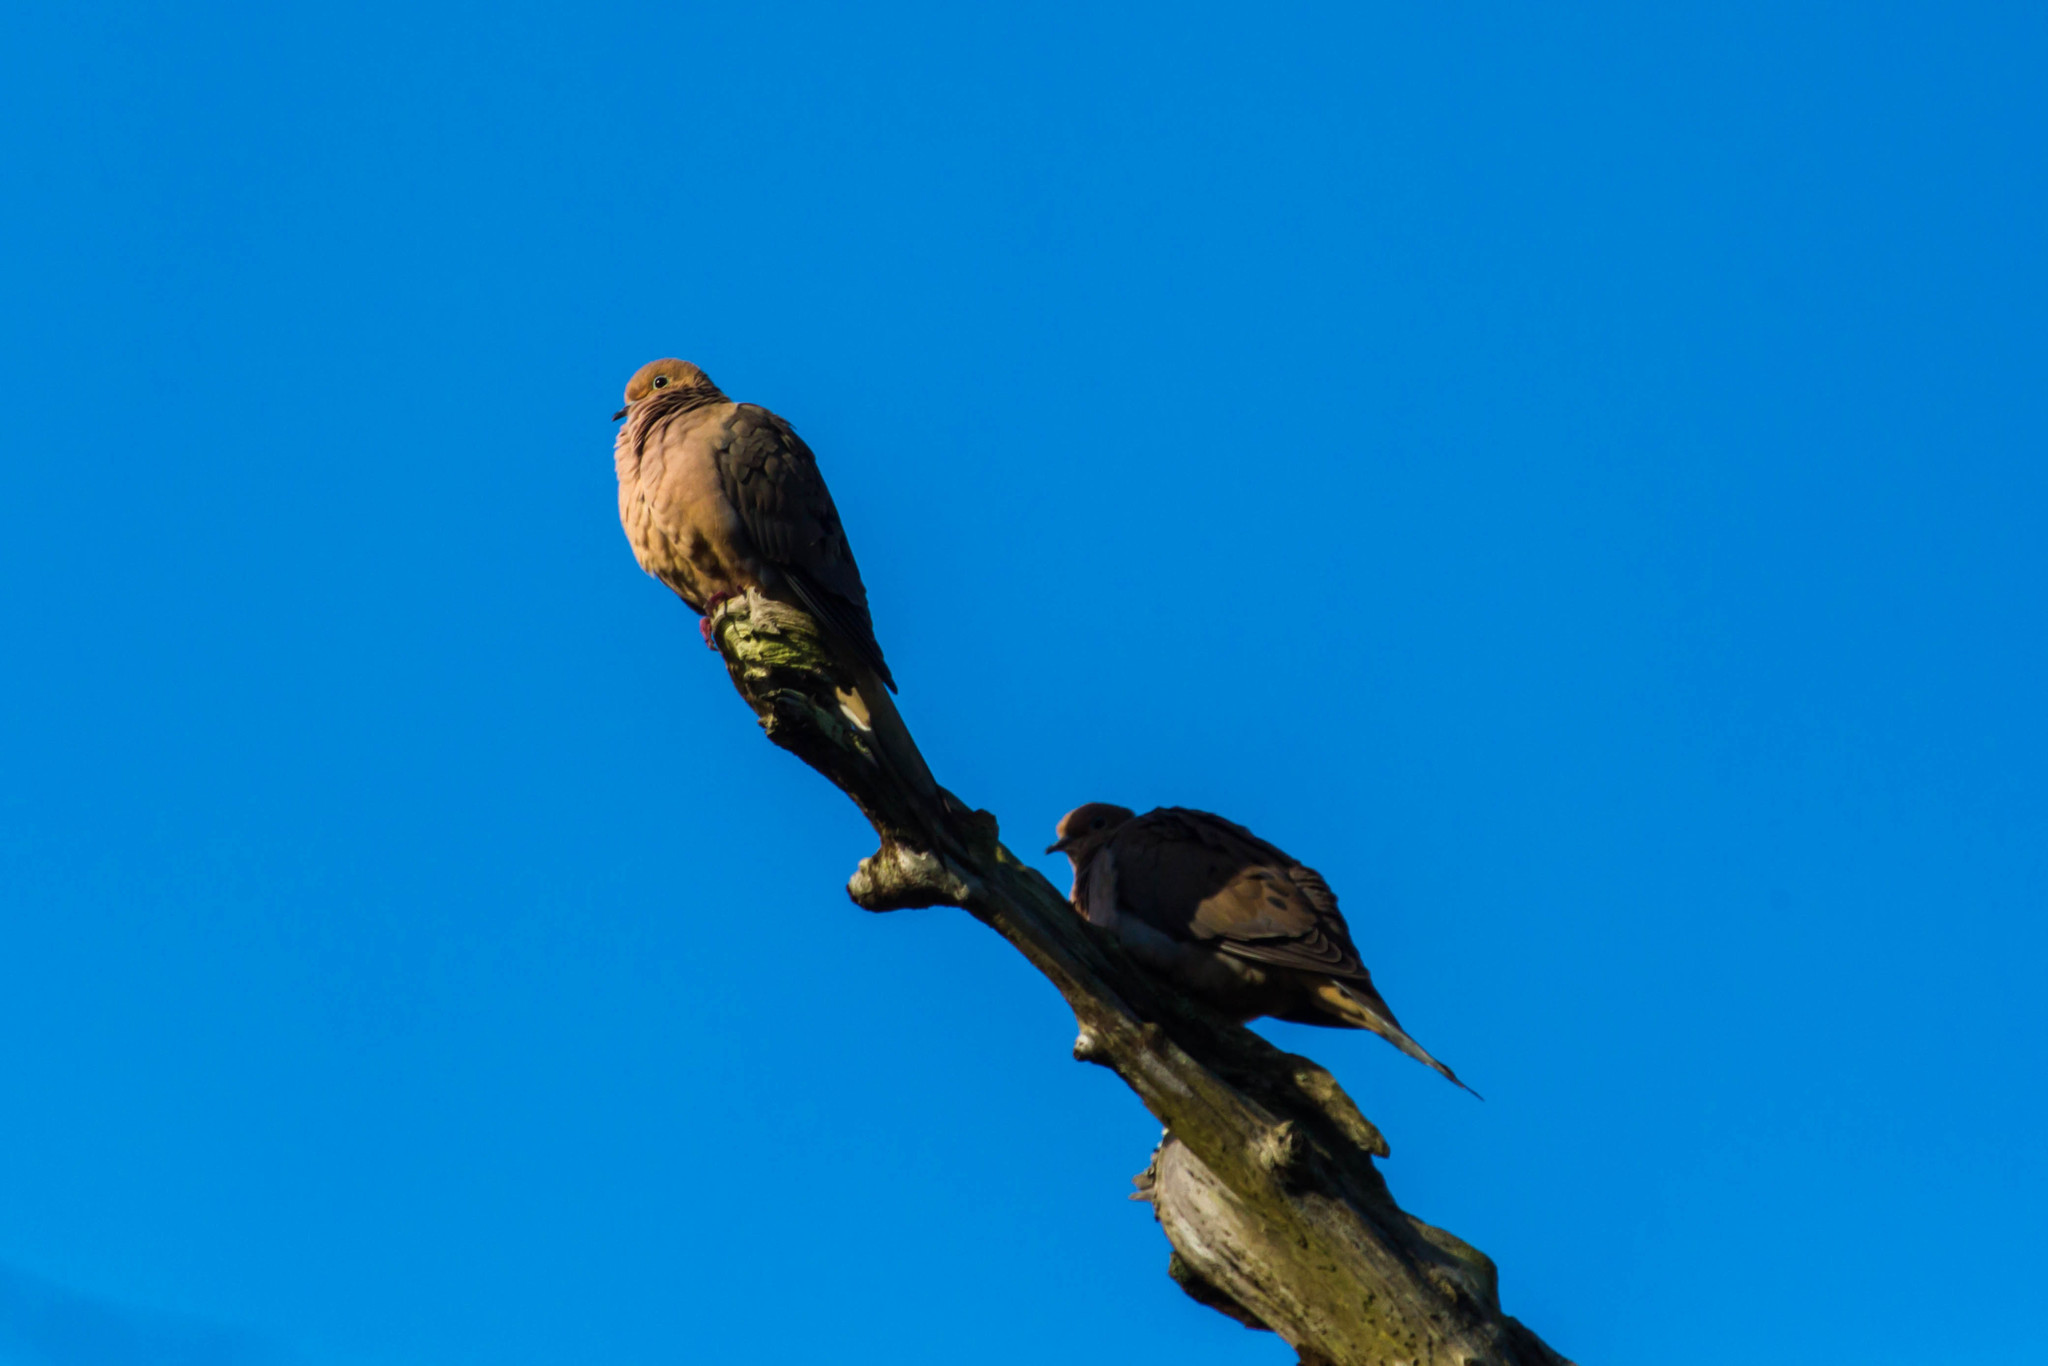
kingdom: Animalia
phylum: Chordata
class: Aves
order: Columbiformes
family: Columbidae
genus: Zenaida
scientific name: Zenaida macroura
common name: Mourning dove
